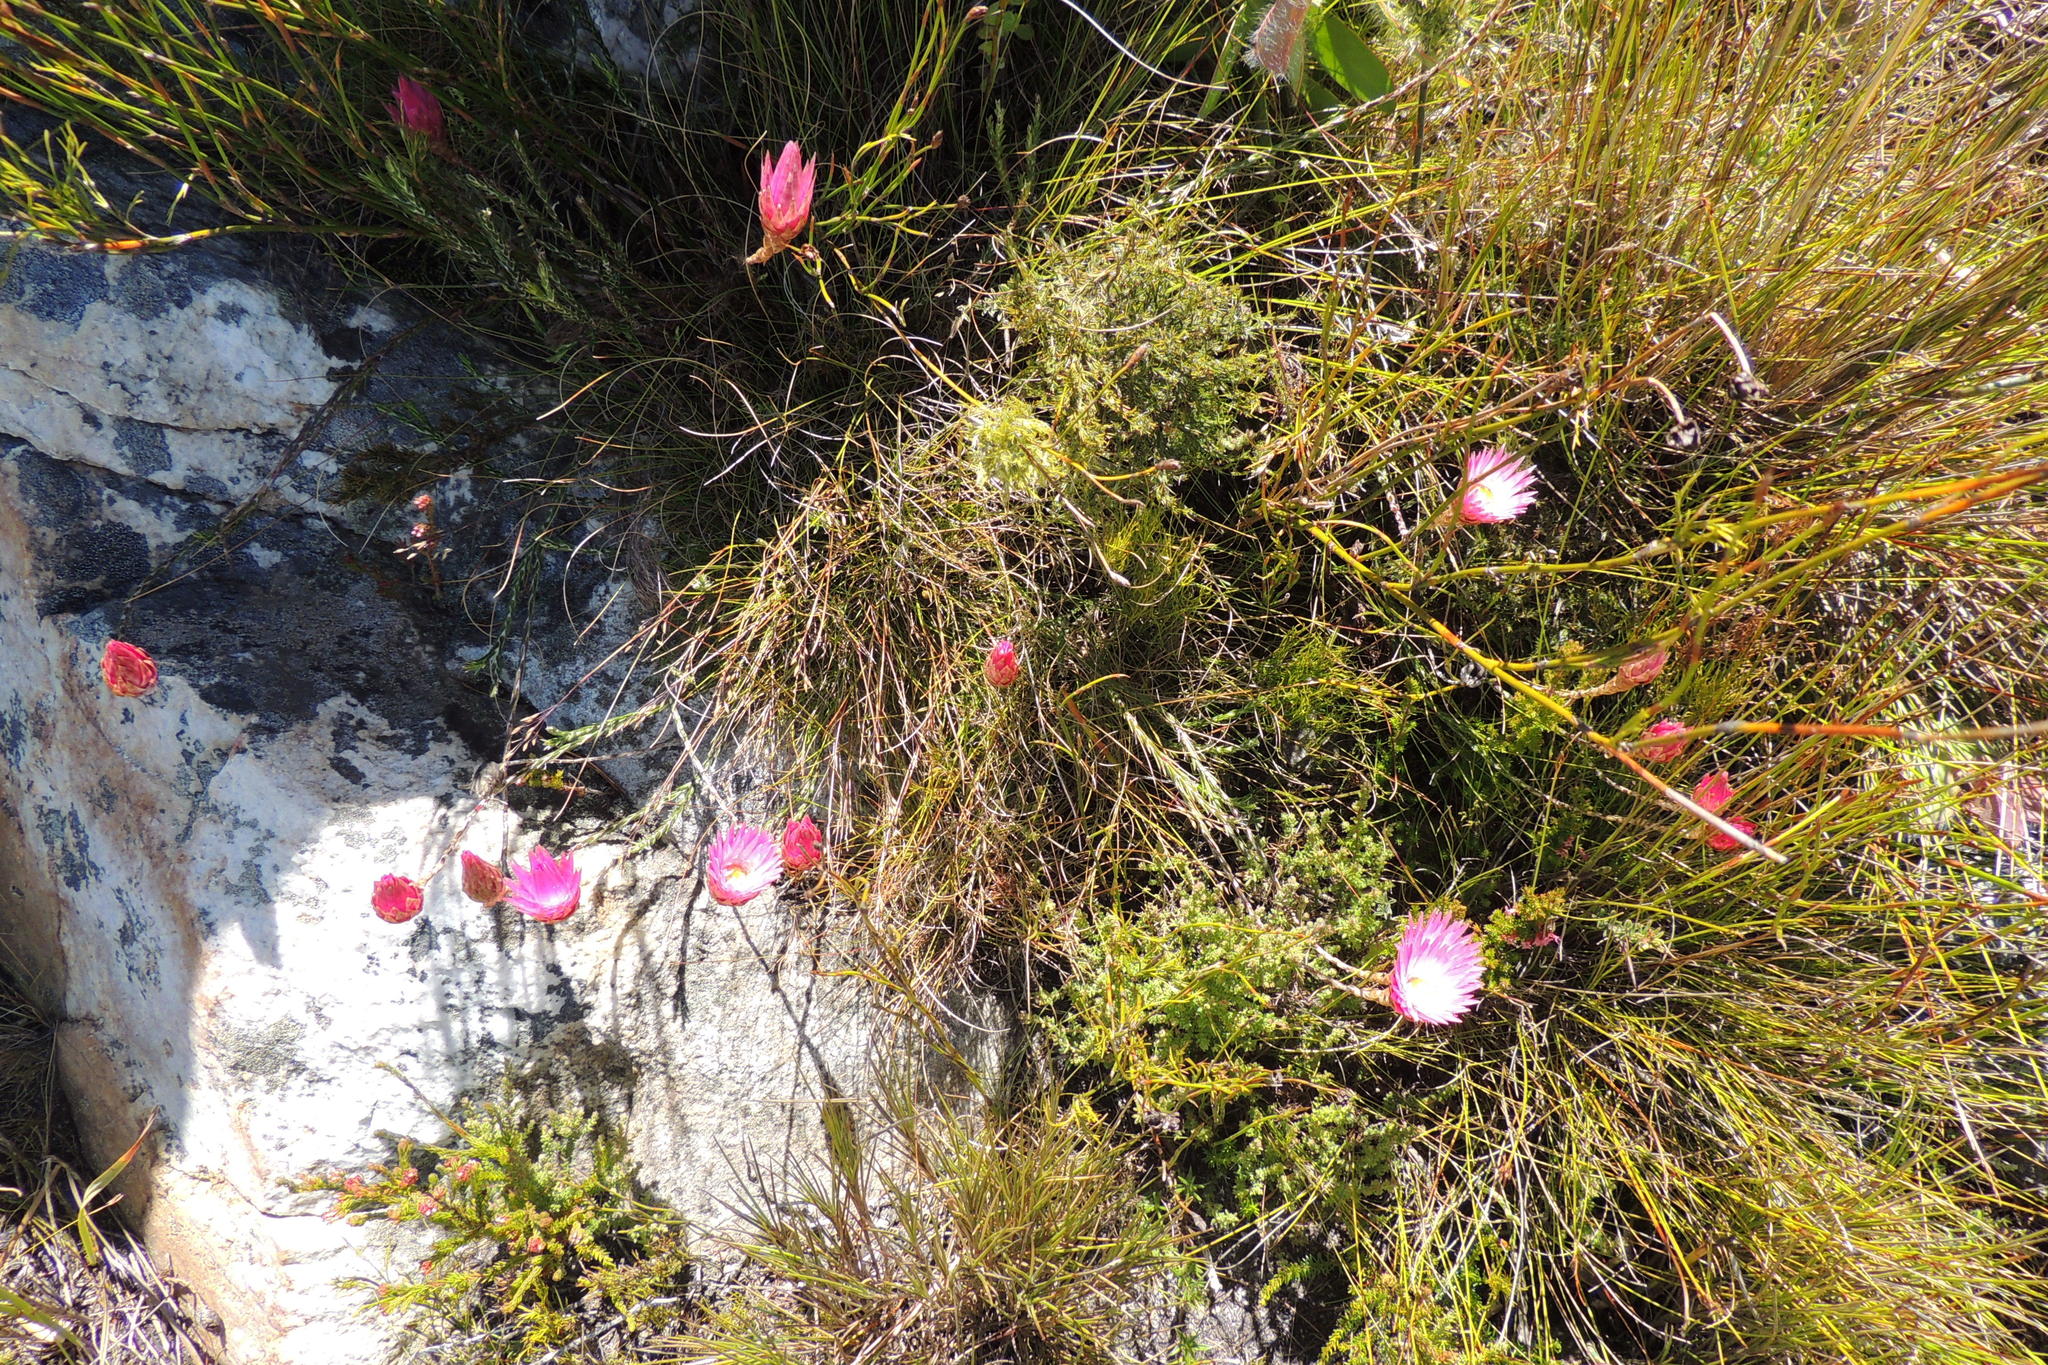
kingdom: Plantae
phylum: Tracheophyta
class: Magnoliopsida
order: Asterales
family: Asteraceae
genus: Syncarpha
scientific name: Syncarpha canescens
